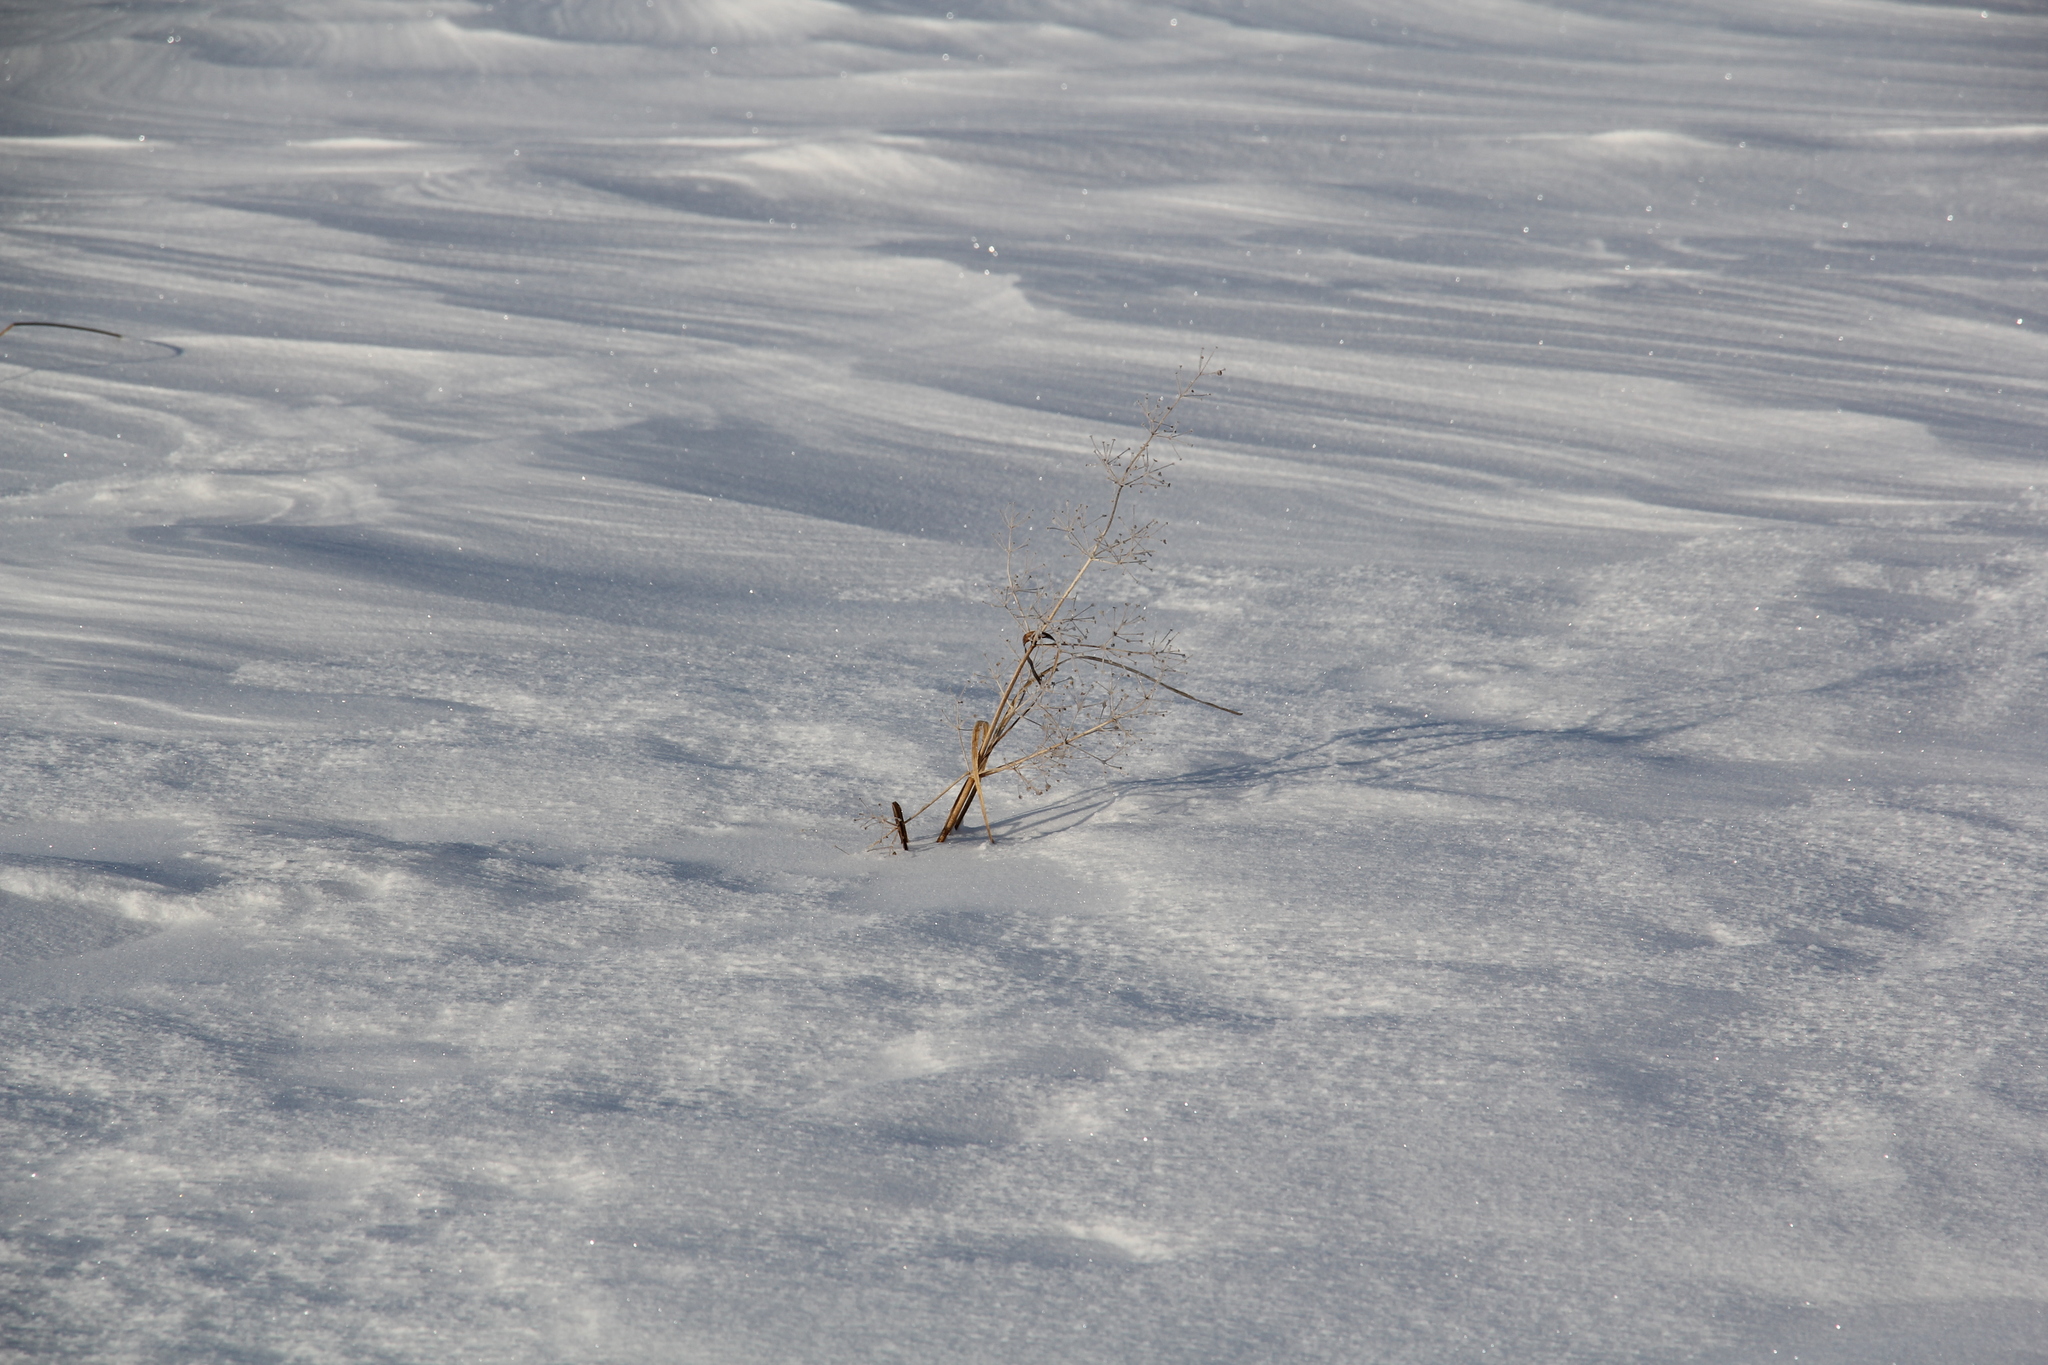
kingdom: Plantae
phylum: Tracheophyta
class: Liliopsida
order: Alismatales
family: Alismataceae
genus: Alisma
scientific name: Alisma plantago-aquatica
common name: Water-plantain
